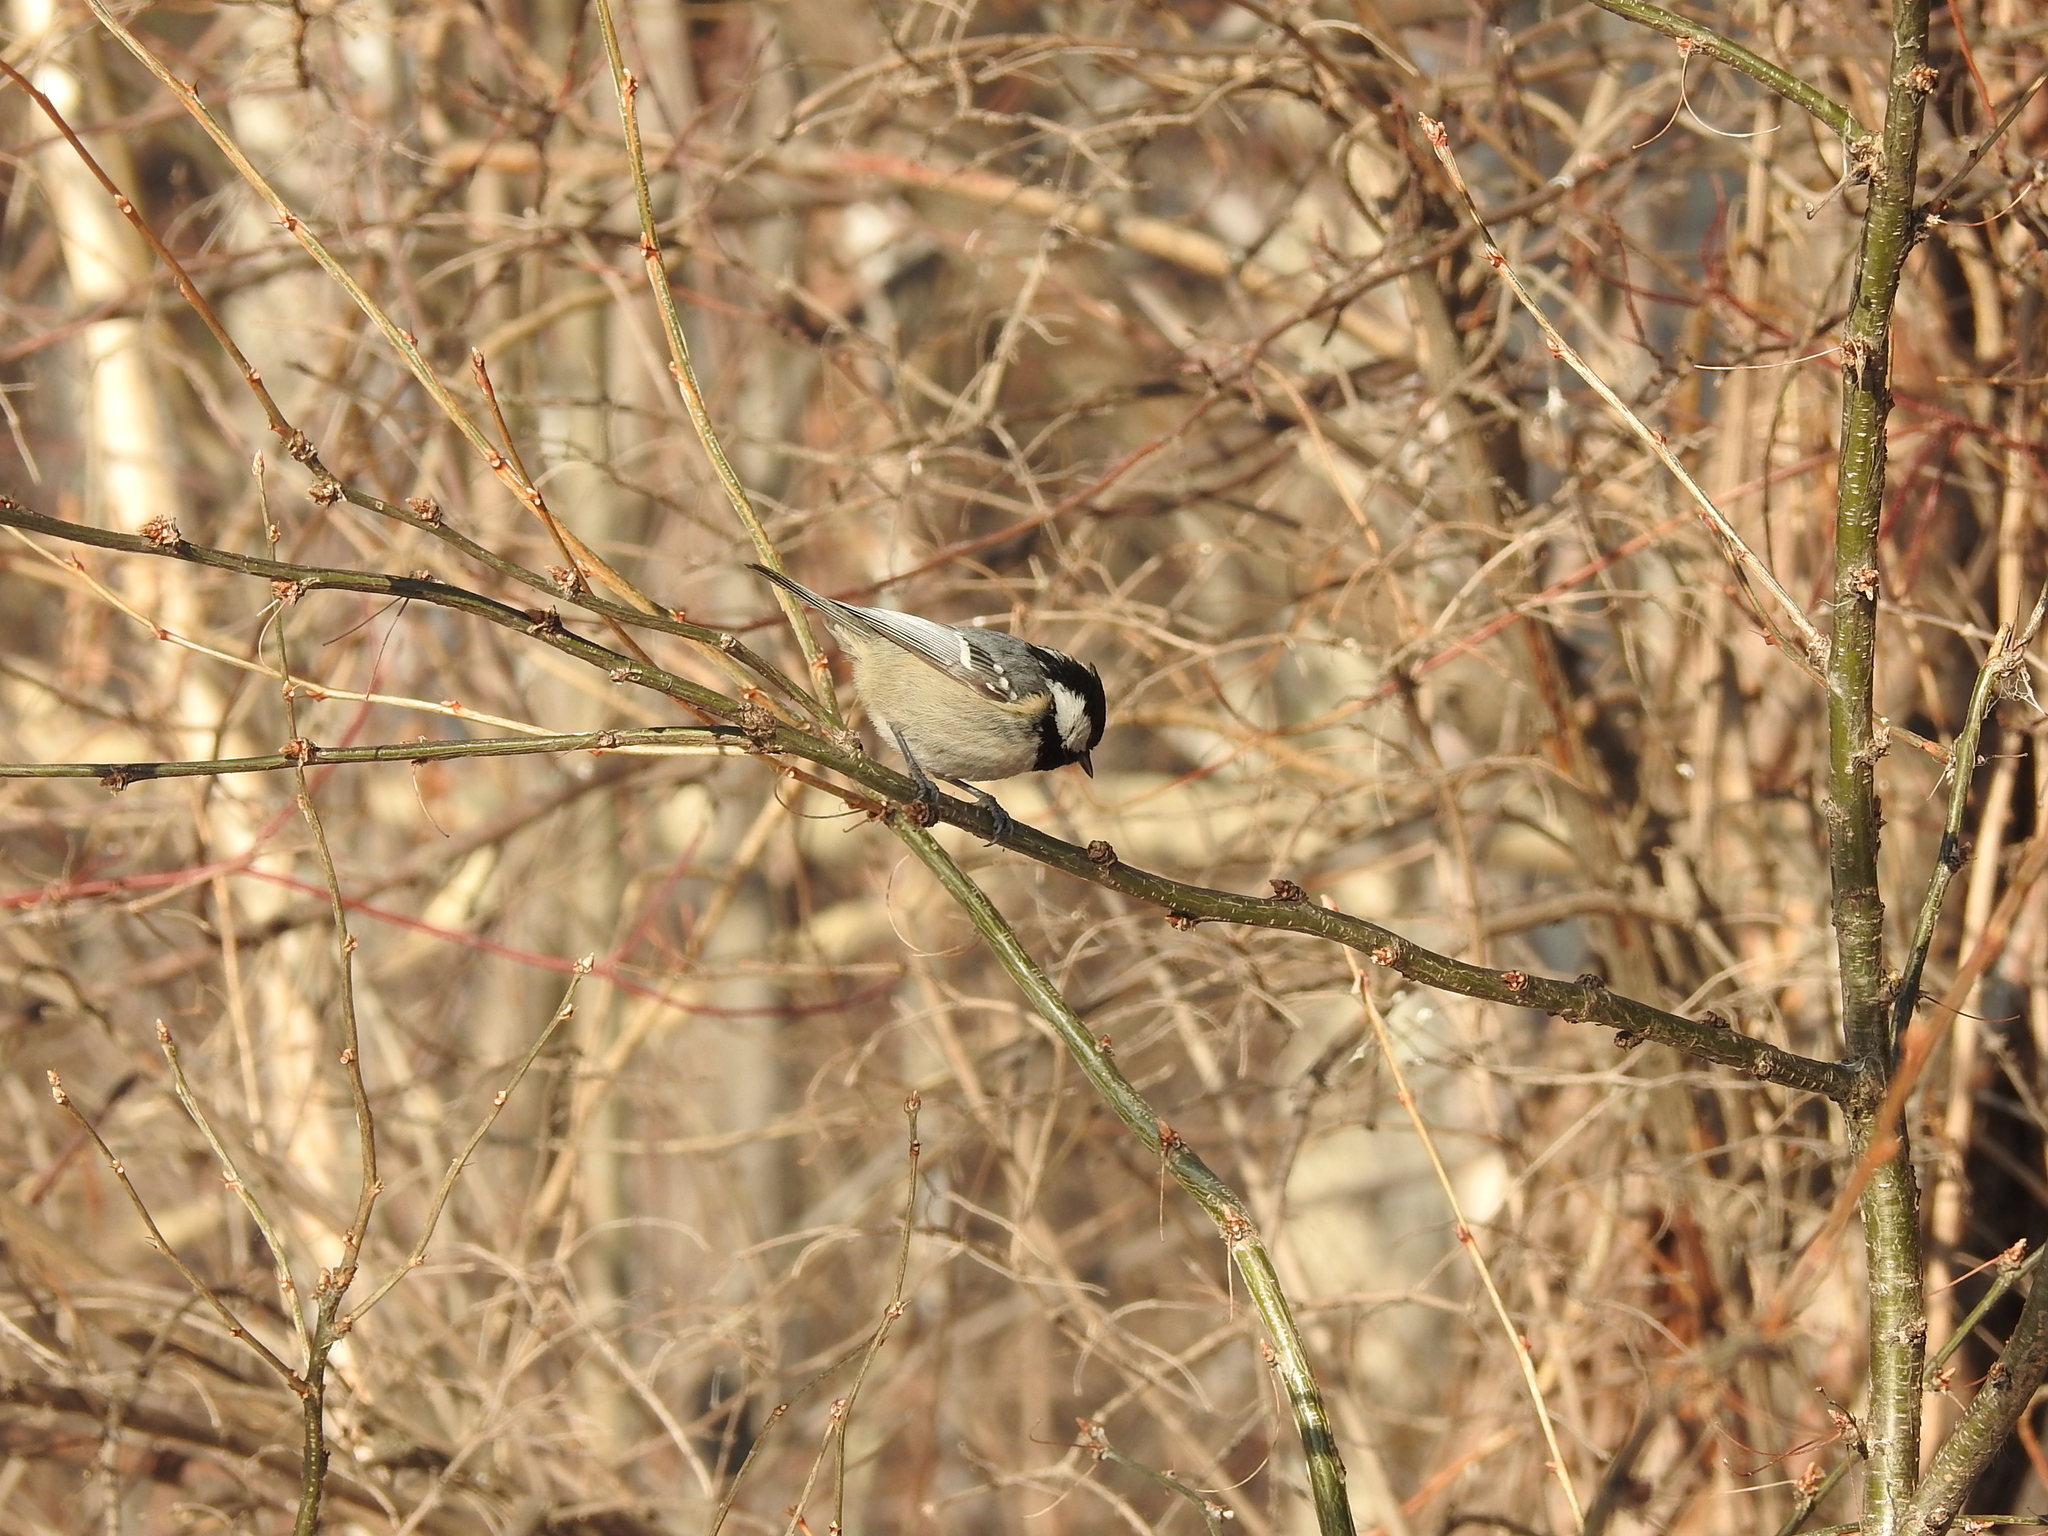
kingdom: Animalia
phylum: Chordata
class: Aves
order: Passeriformes
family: Paridae
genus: Periparus
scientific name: Periparus ater
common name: Coal tit
